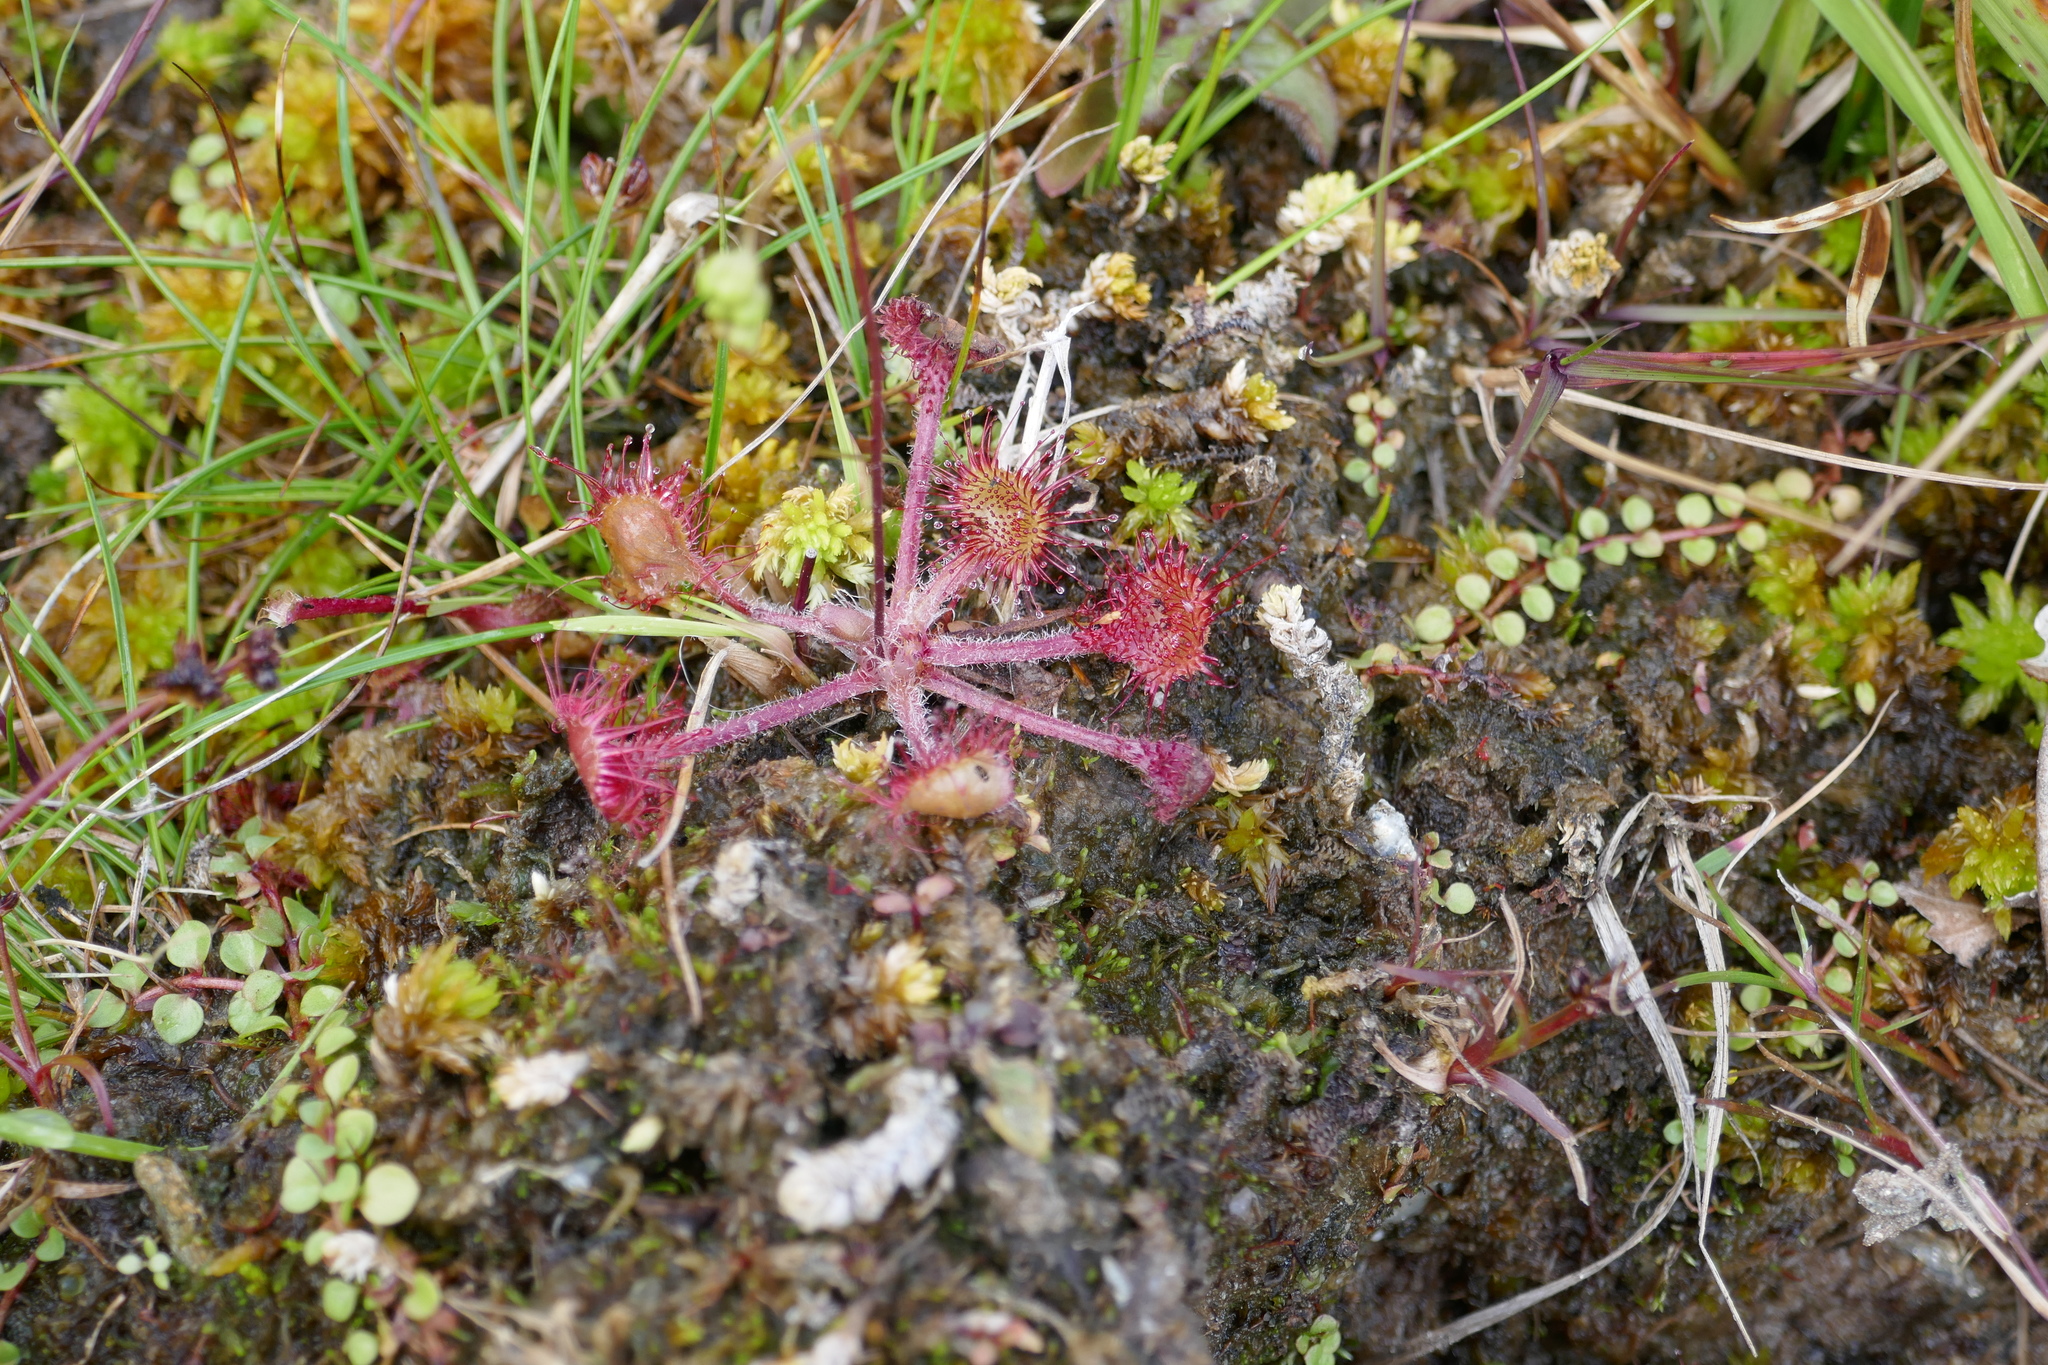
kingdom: Plantae
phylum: Tracheophyta
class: Magnoliopsida
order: Caryophyllales
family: Droseraceae
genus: Drosera
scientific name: Drosera rotundifolia
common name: Round-leaved sundew
